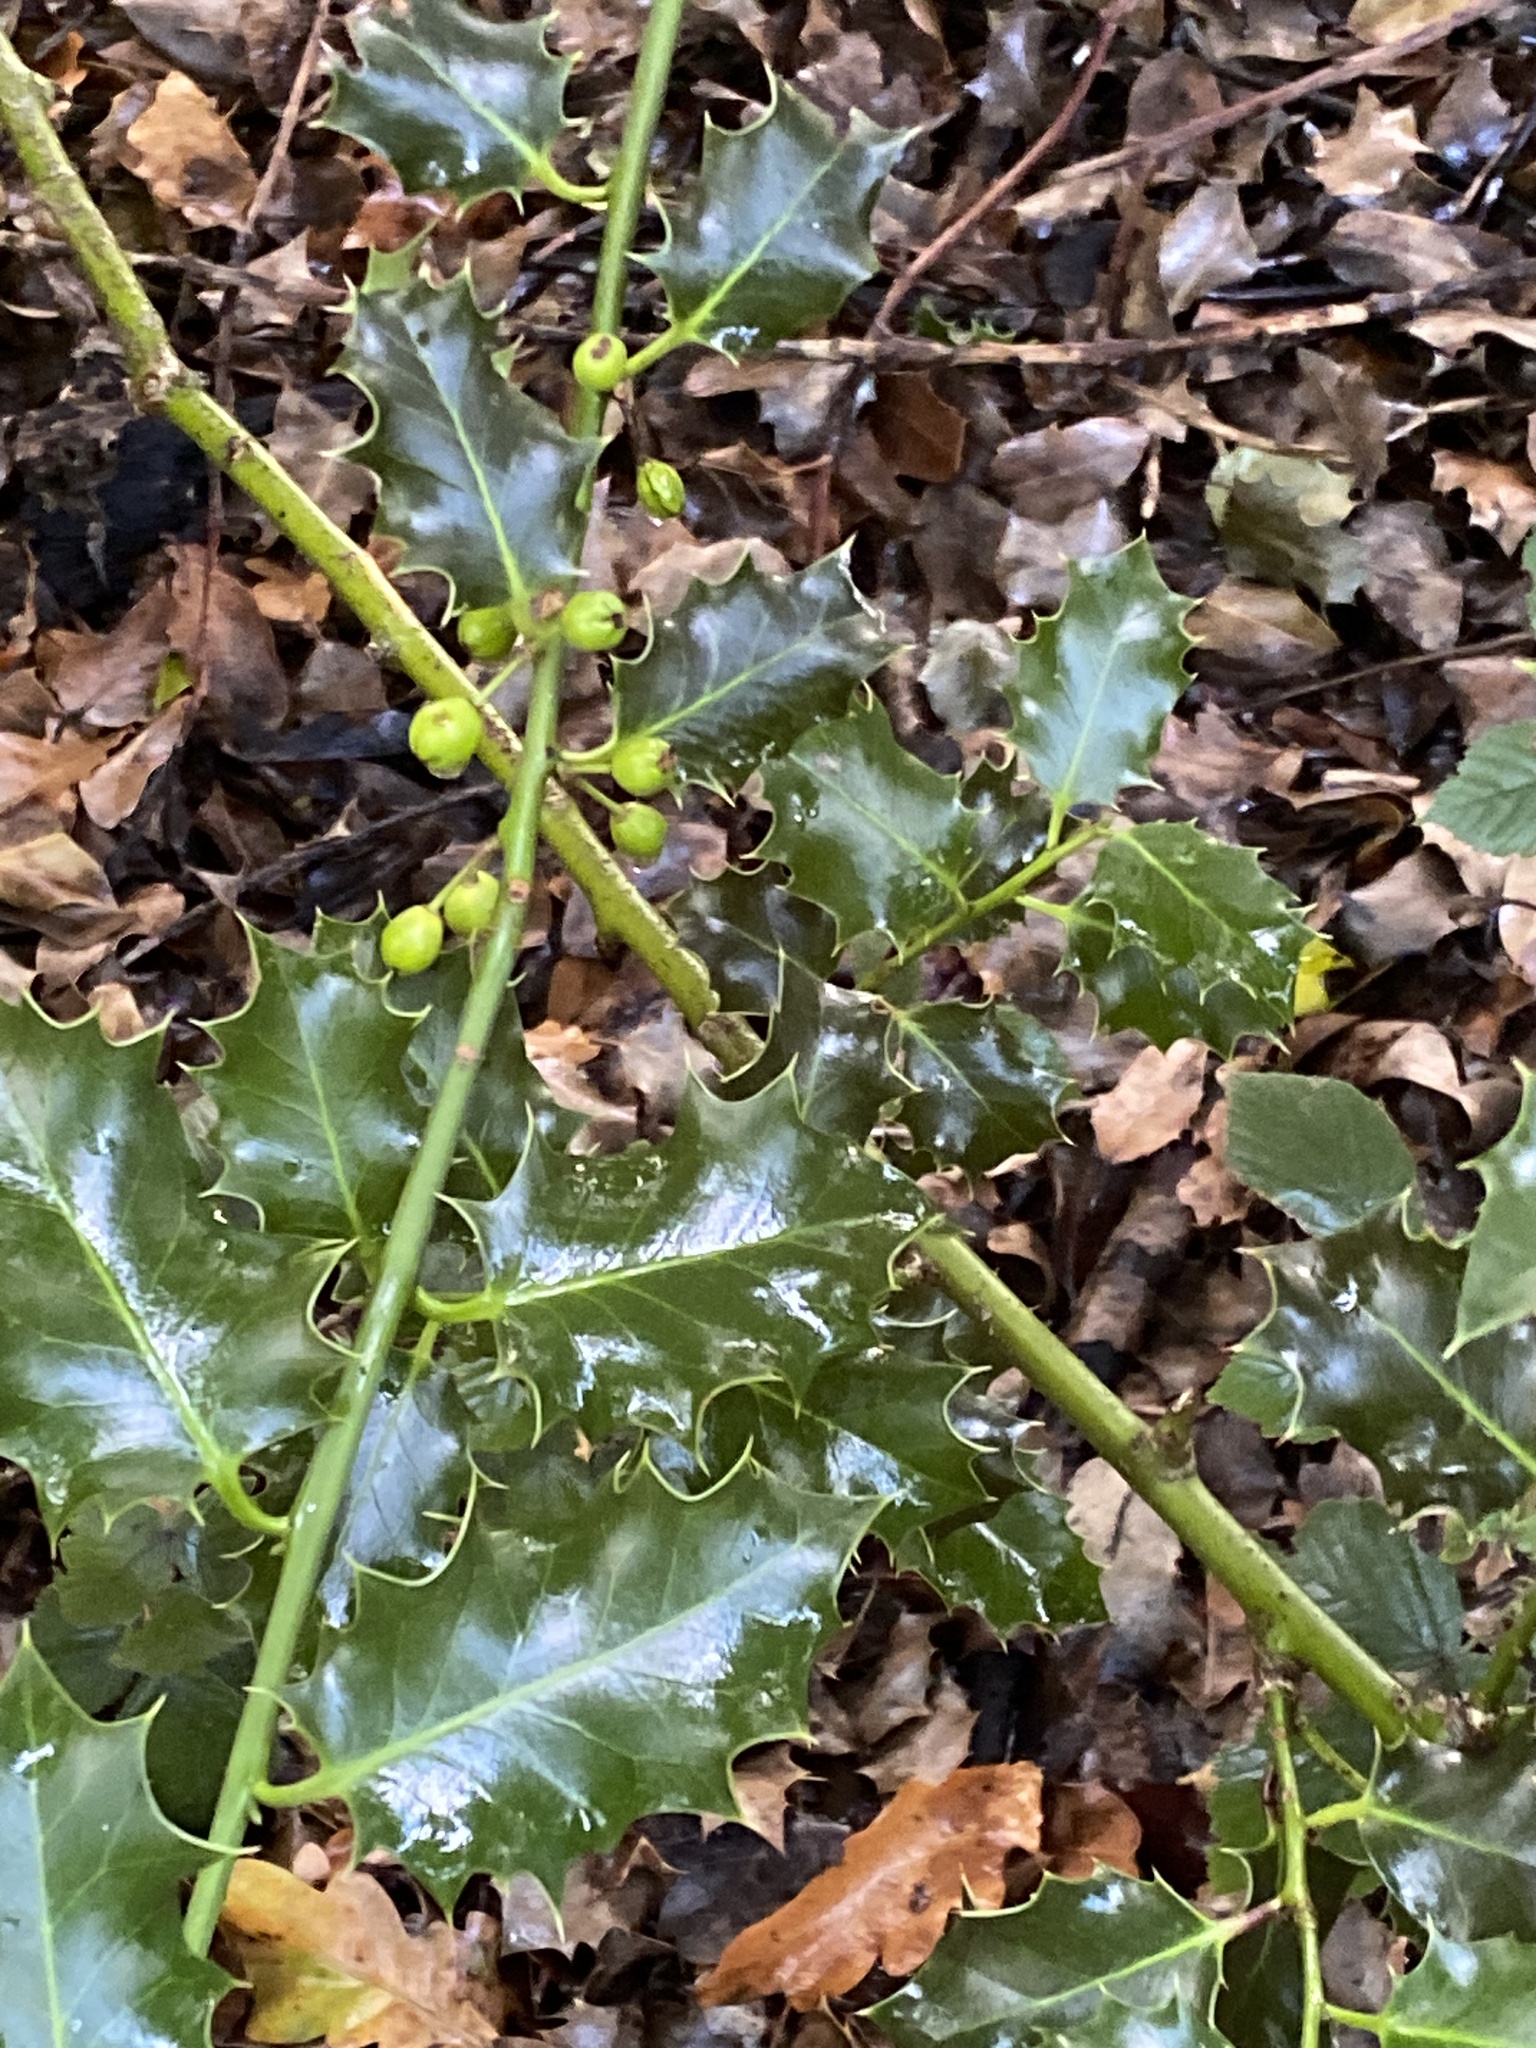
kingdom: Plantae
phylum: Tracheophyta
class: Magnoliopsida
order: Aquifoliales
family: Aquifoliaceae
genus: Ilex
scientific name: Ilex aquifolium
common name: English holly
